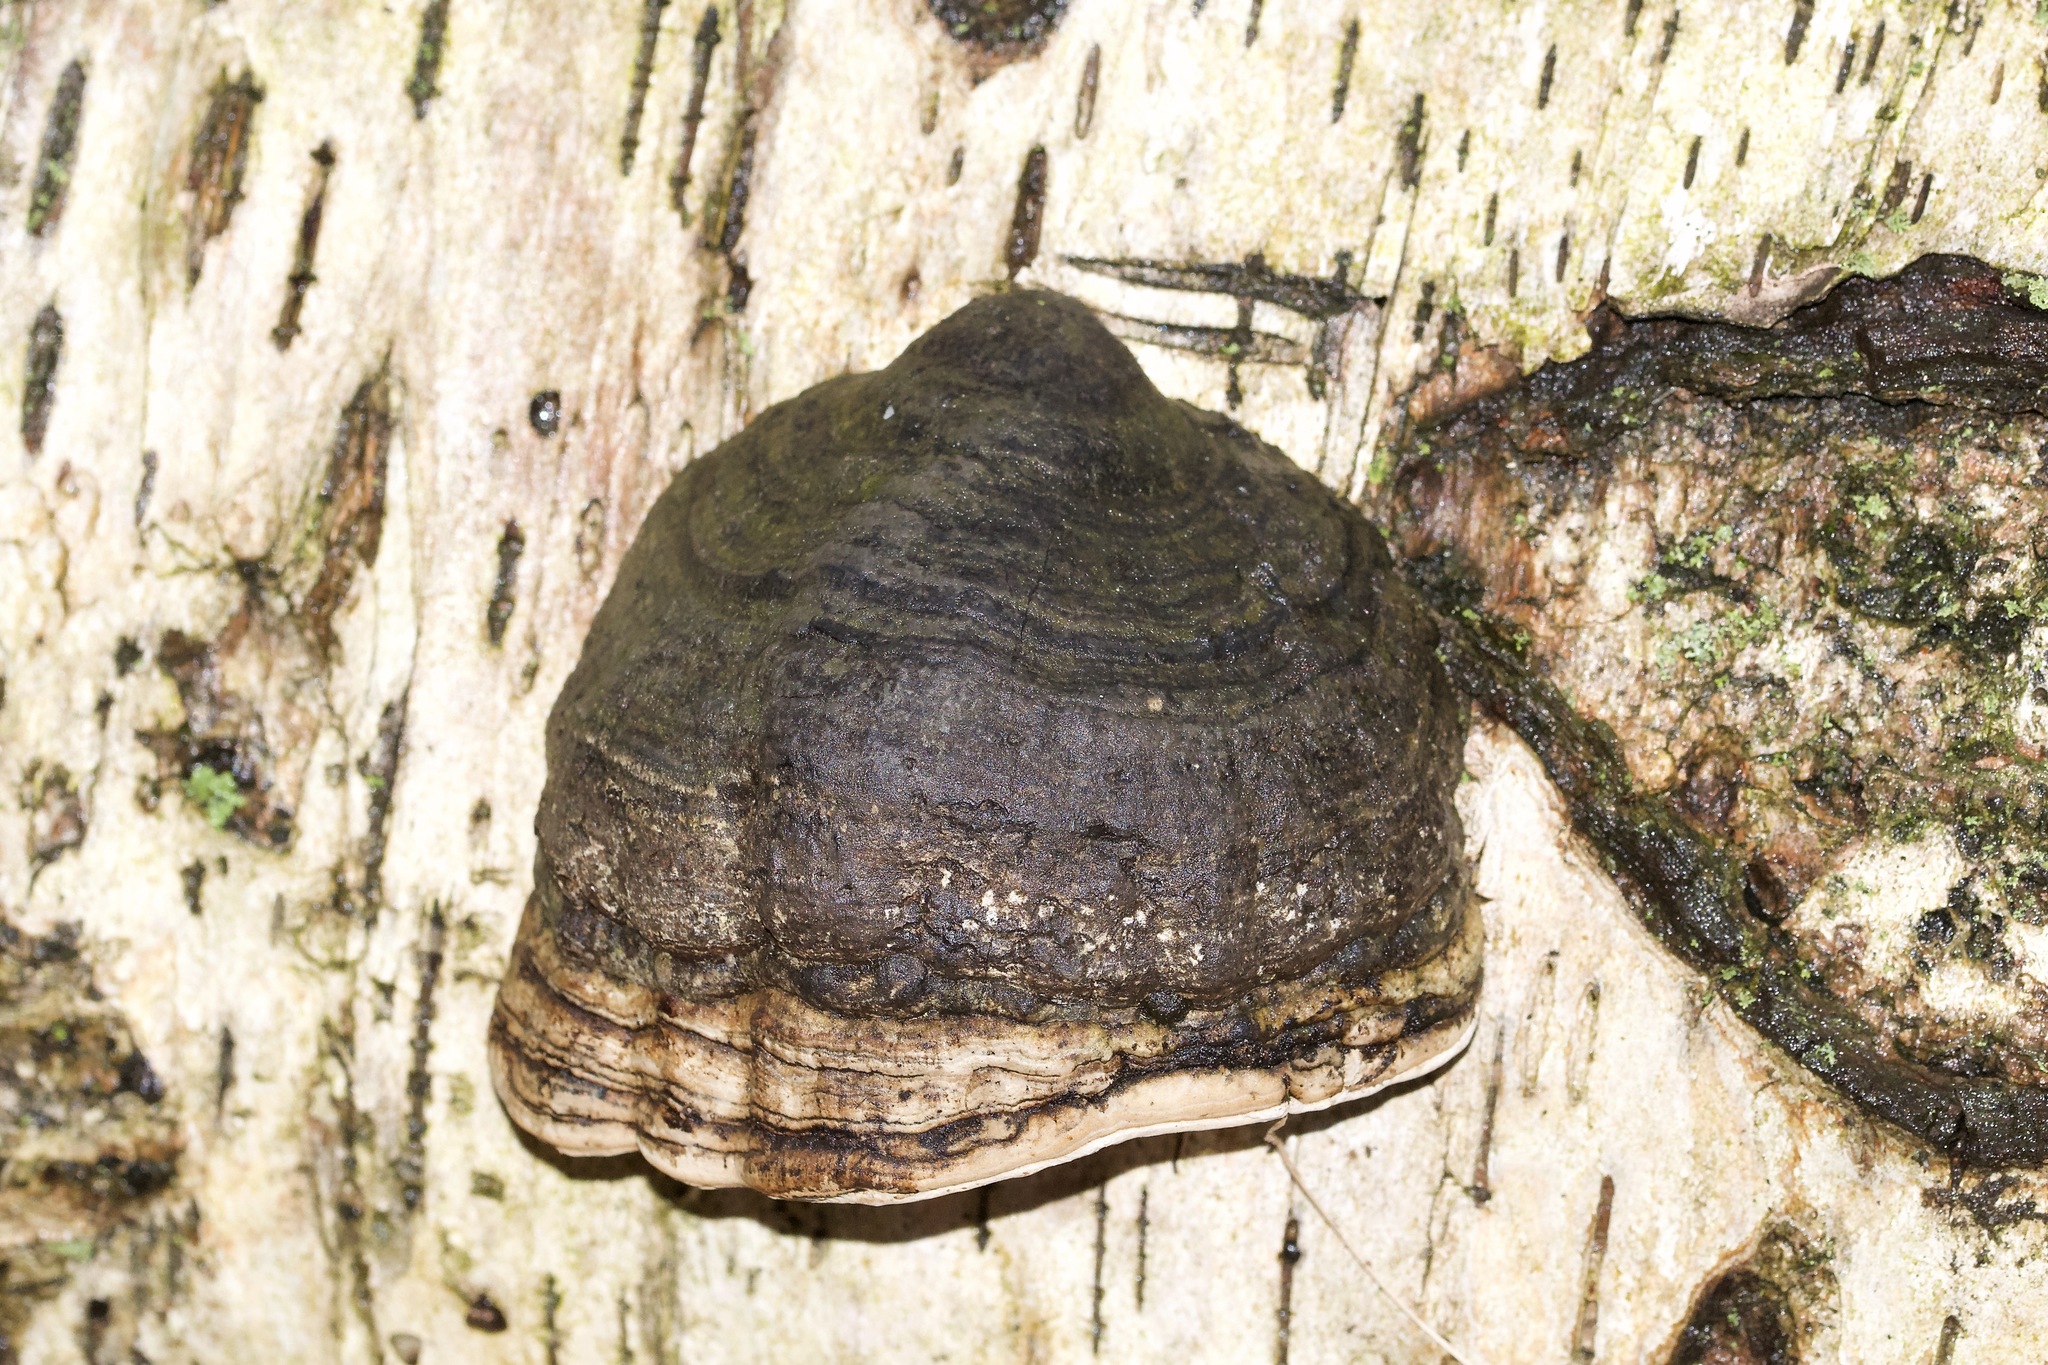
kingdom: Fungi
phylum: Basidiomycota
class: Agaricomycetes
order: Polyporales
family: Polyporaceae
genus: Fomes
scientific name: Fomes fomentarius
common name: Hoof fungus
